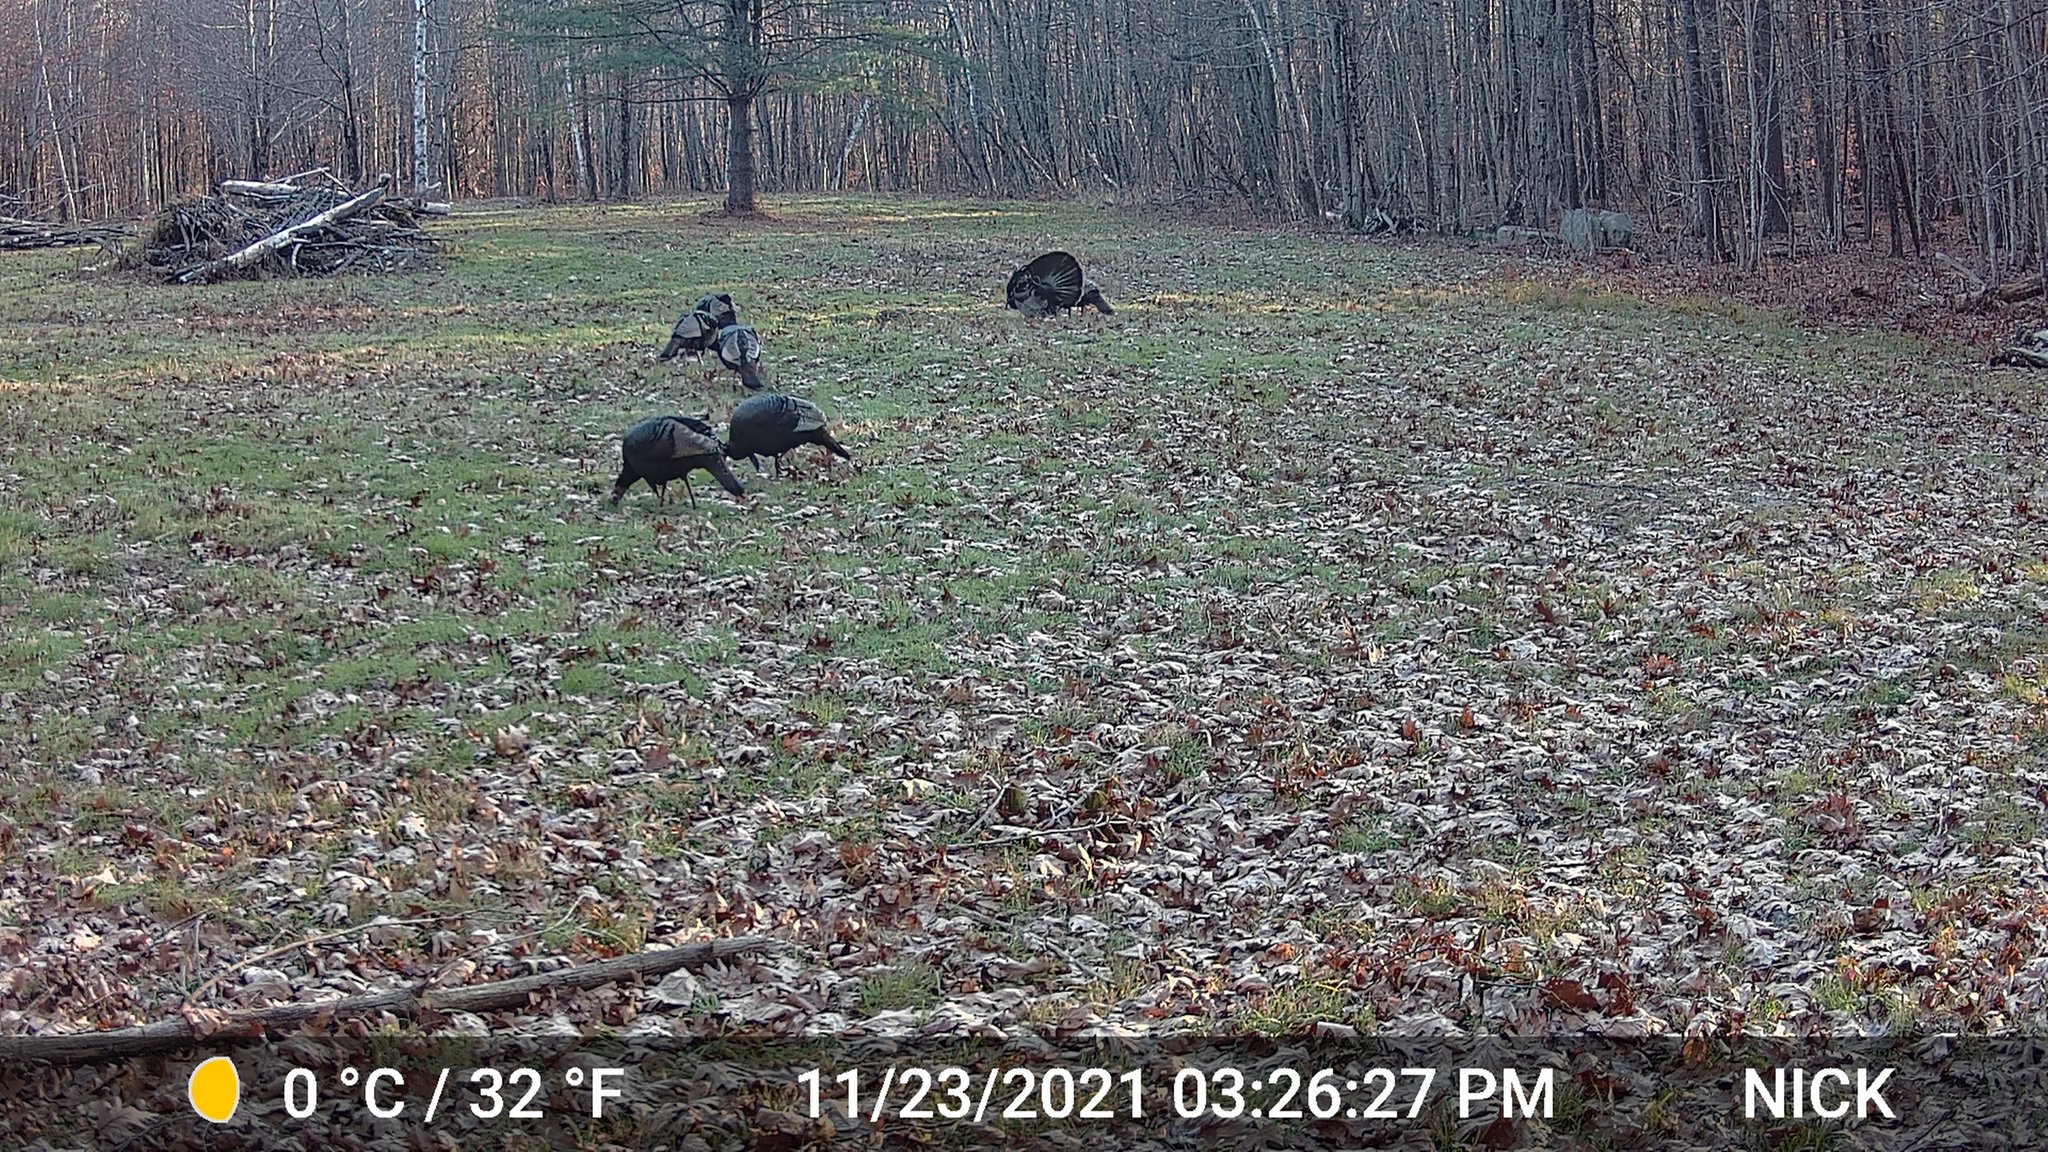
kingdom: Animalia
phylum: Chordata
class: Aves
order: Galliformes
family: Phasianidae
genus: Meleagris
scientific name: Meleagris gallopavo
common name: Wild turkey
